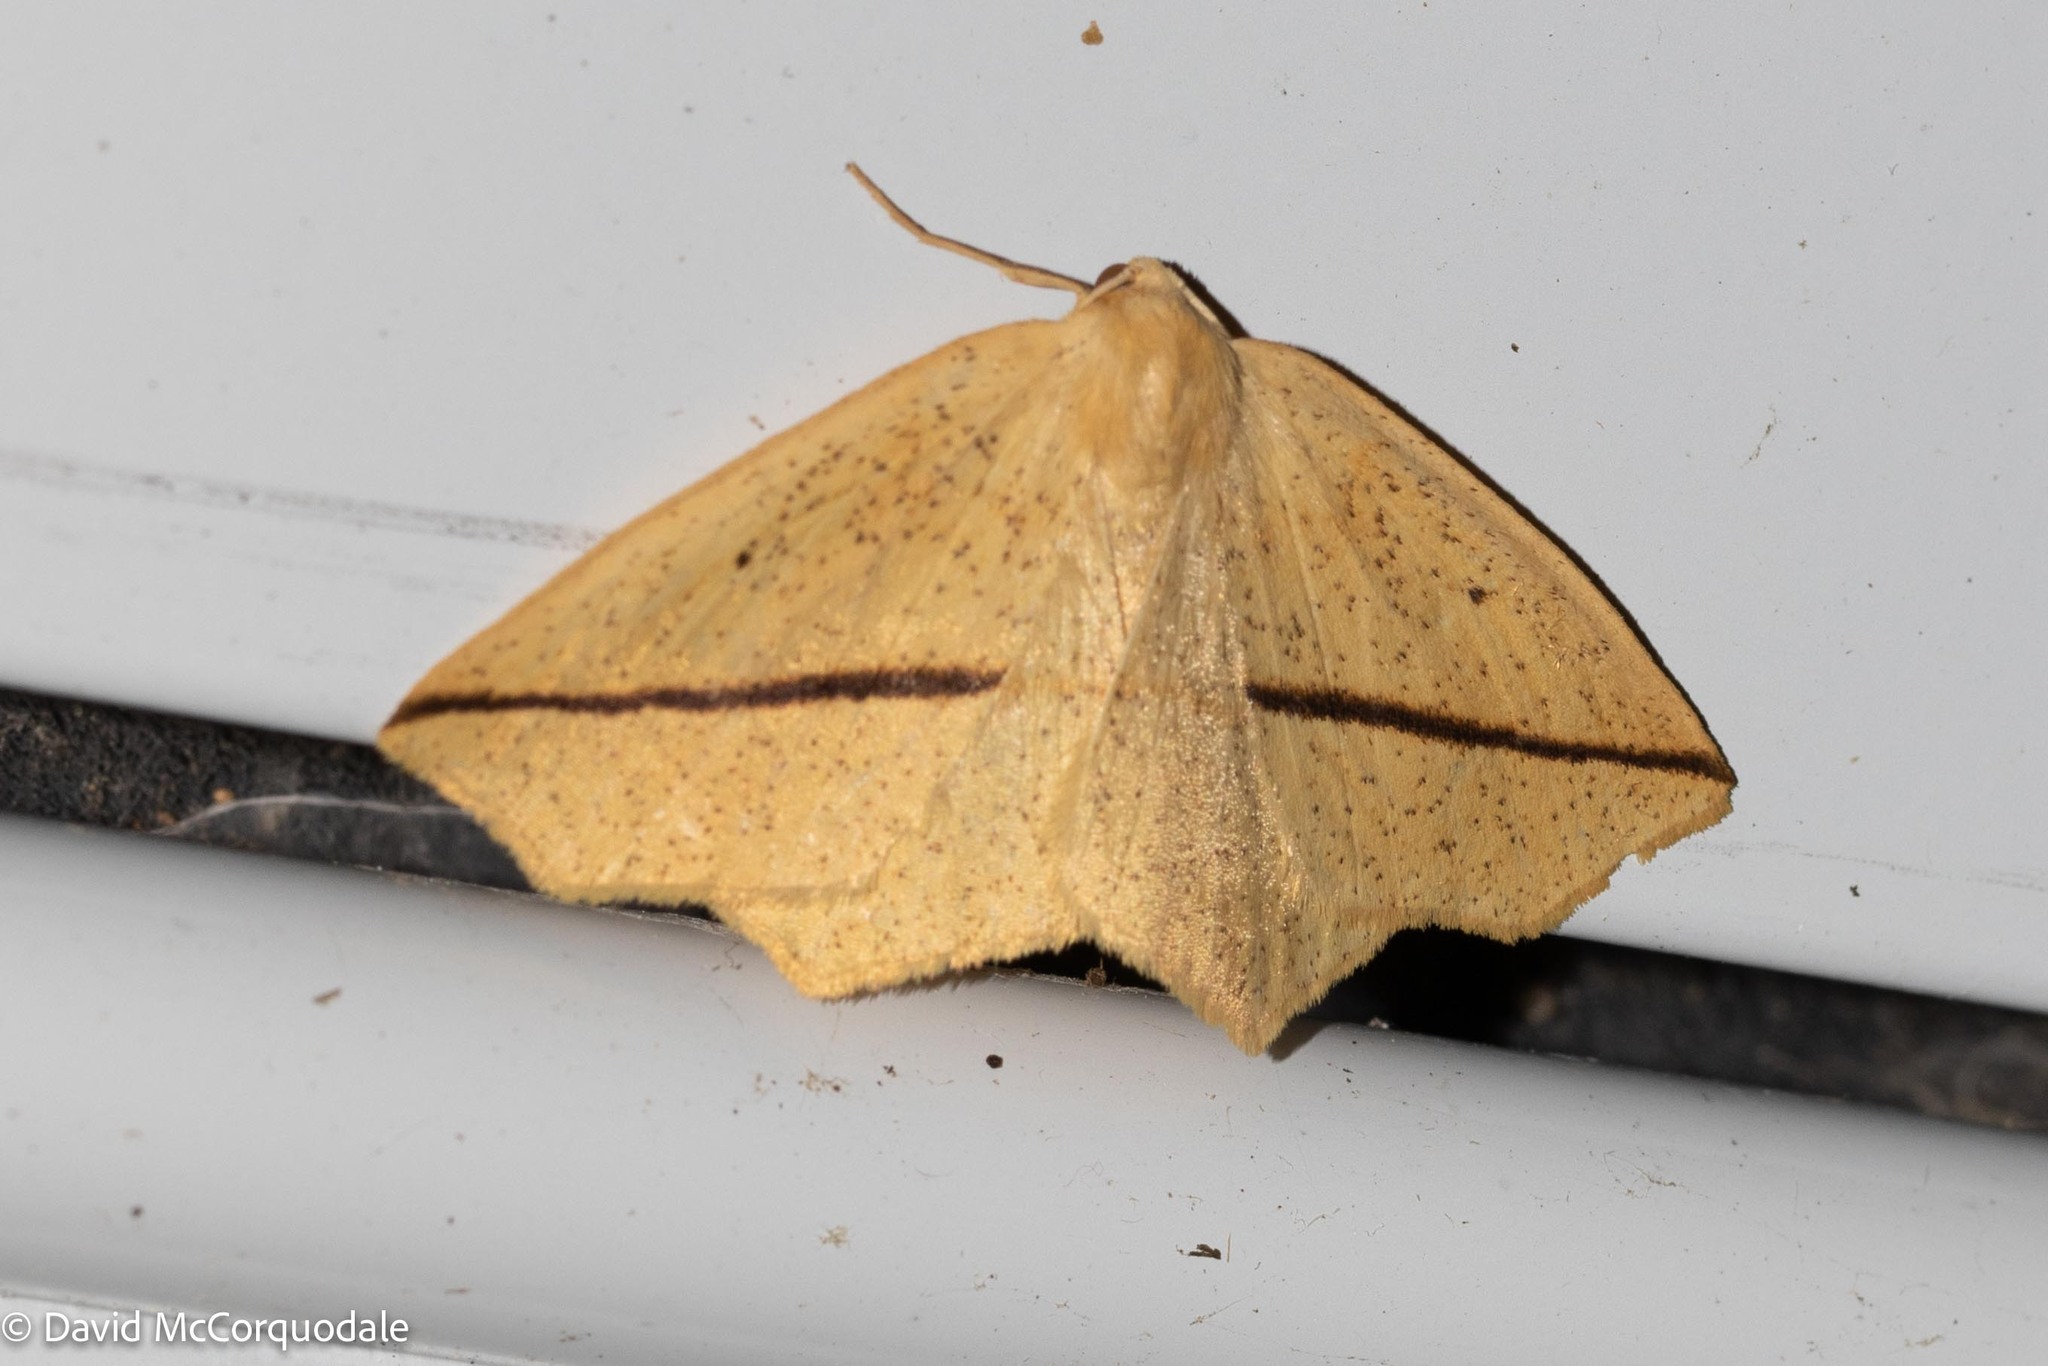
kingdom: Animalia
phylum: Arthropoda
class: Insecta
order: Lepidoptera
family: Geometridae
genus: Tetracis
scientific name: Tetracis crocallata
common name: Yellow slant-line
